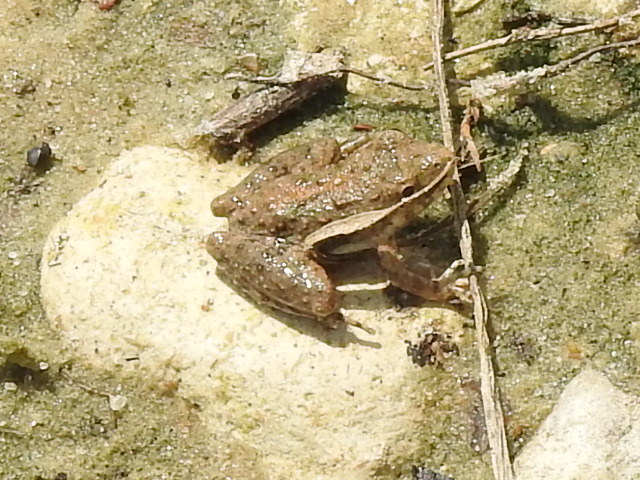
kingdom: Animalia
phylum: Chordata
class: Amphibia
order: Anura
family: Hylidae
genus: Acris
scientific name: Acris blanchardi
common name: Blanchard's cricket frog
